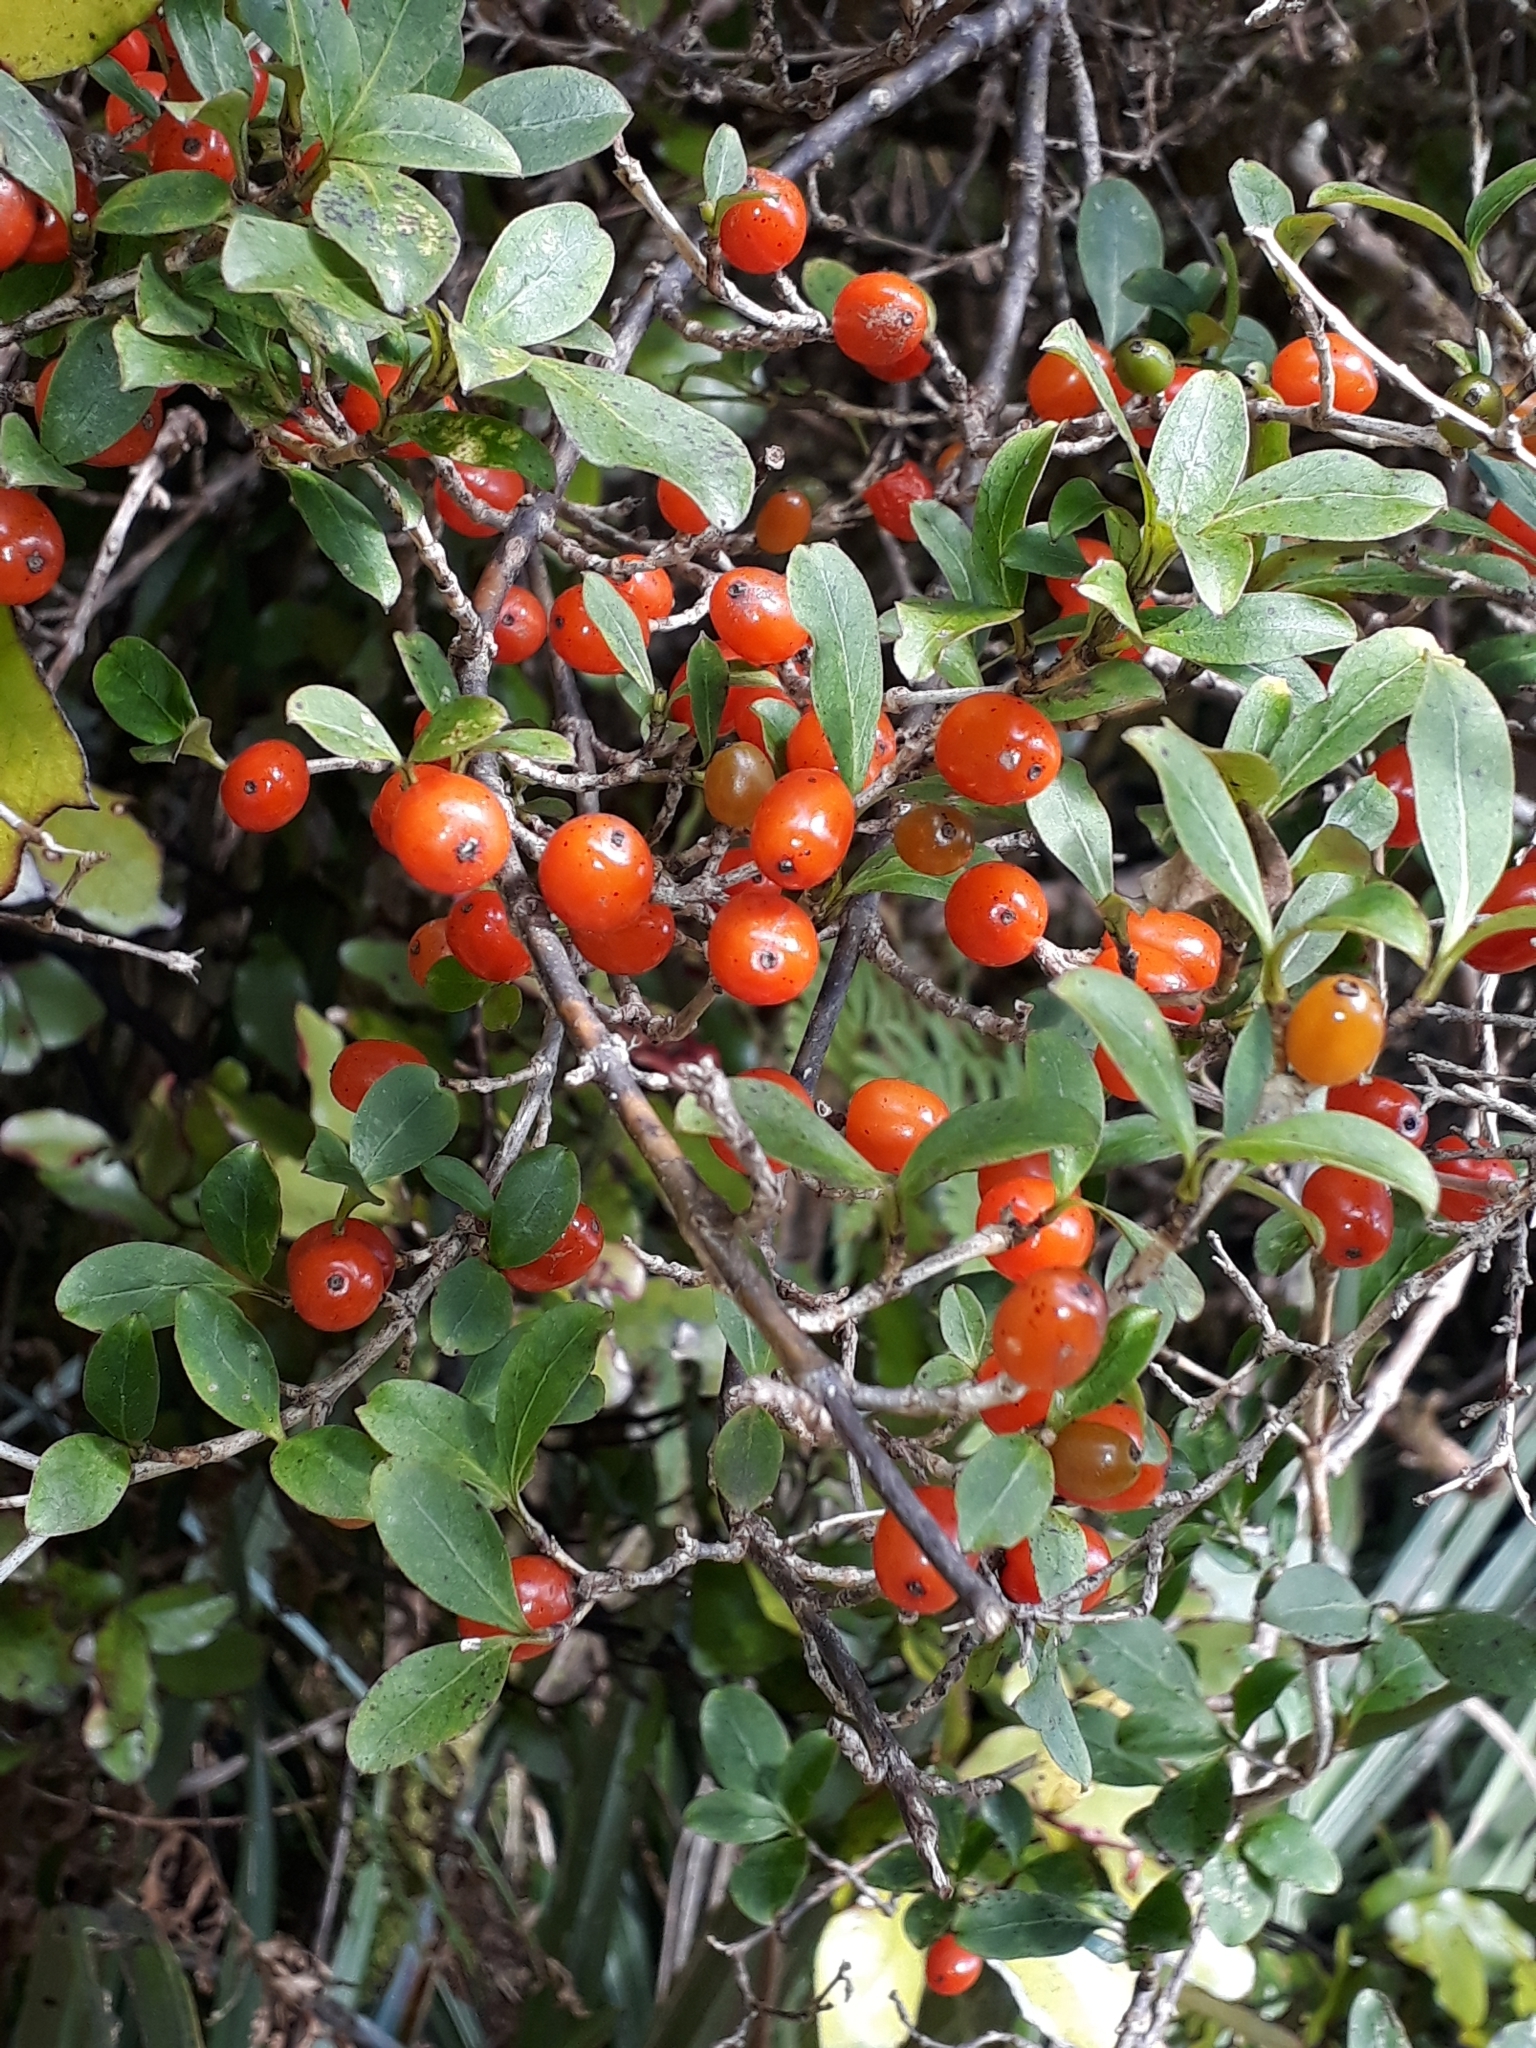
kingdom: Plantae
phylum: Tracheophyta
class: Magnoliopsida
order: Gentianales
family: Rubiaceae
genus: Coprosma
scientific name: Coprosma foetidissima
